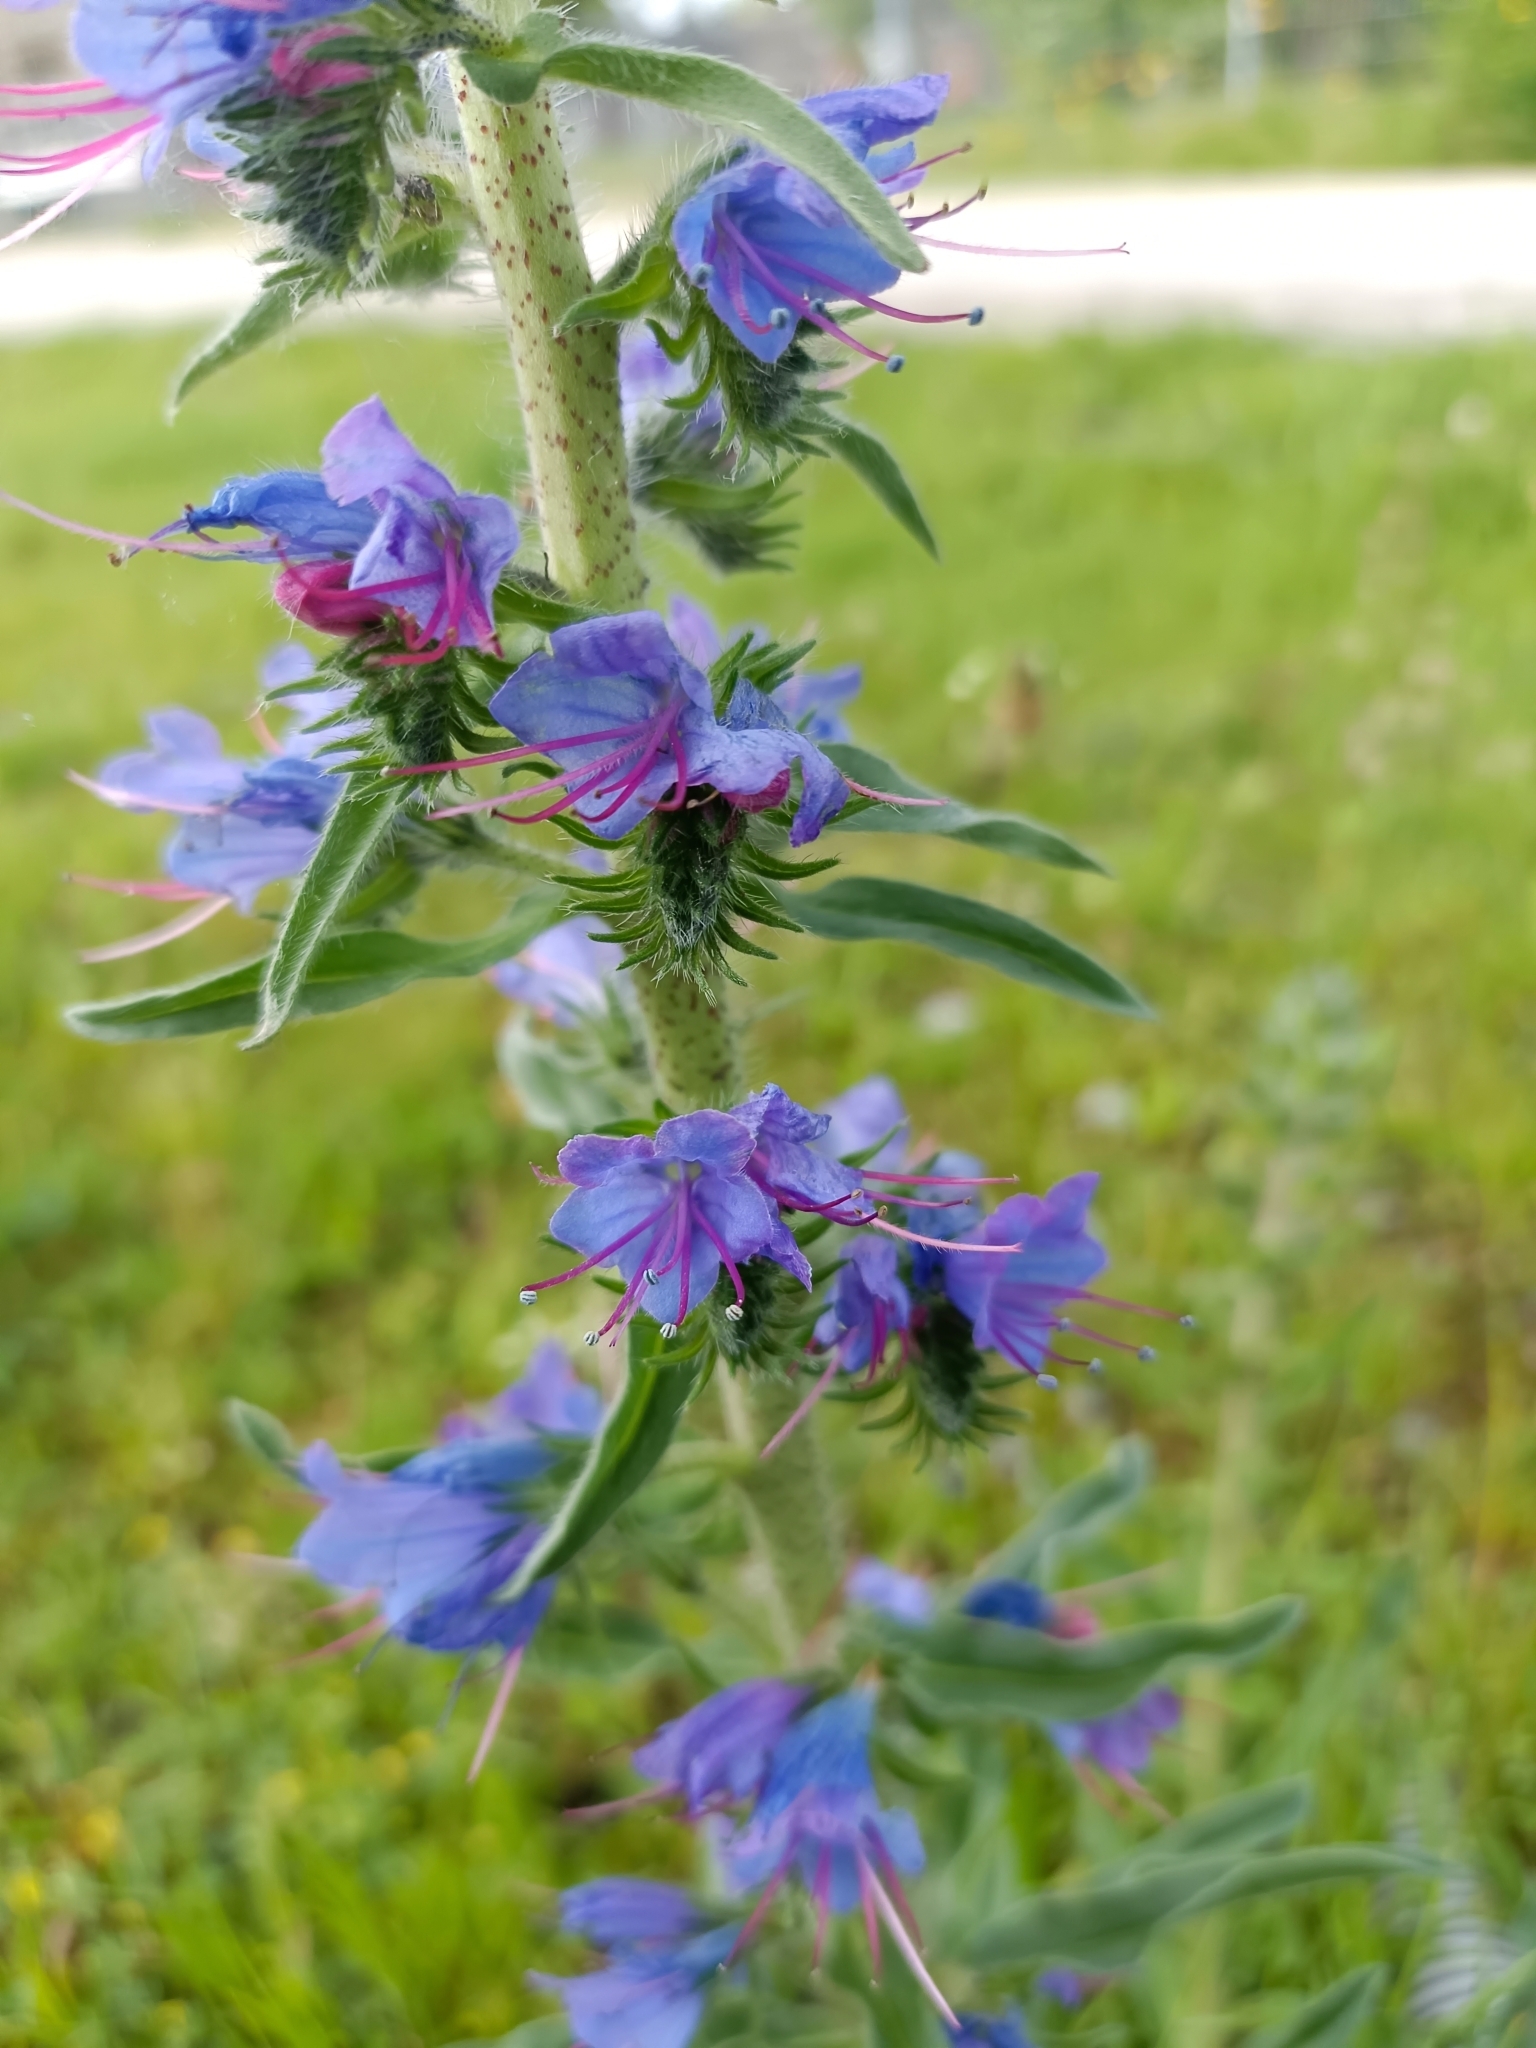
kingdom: Plantae
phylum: Tracheophyta
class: Magnoliopsida
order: Boraginales
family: Boraginaceae
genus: Echium
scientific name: Echium vulgare
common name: Common viper's bugloss
